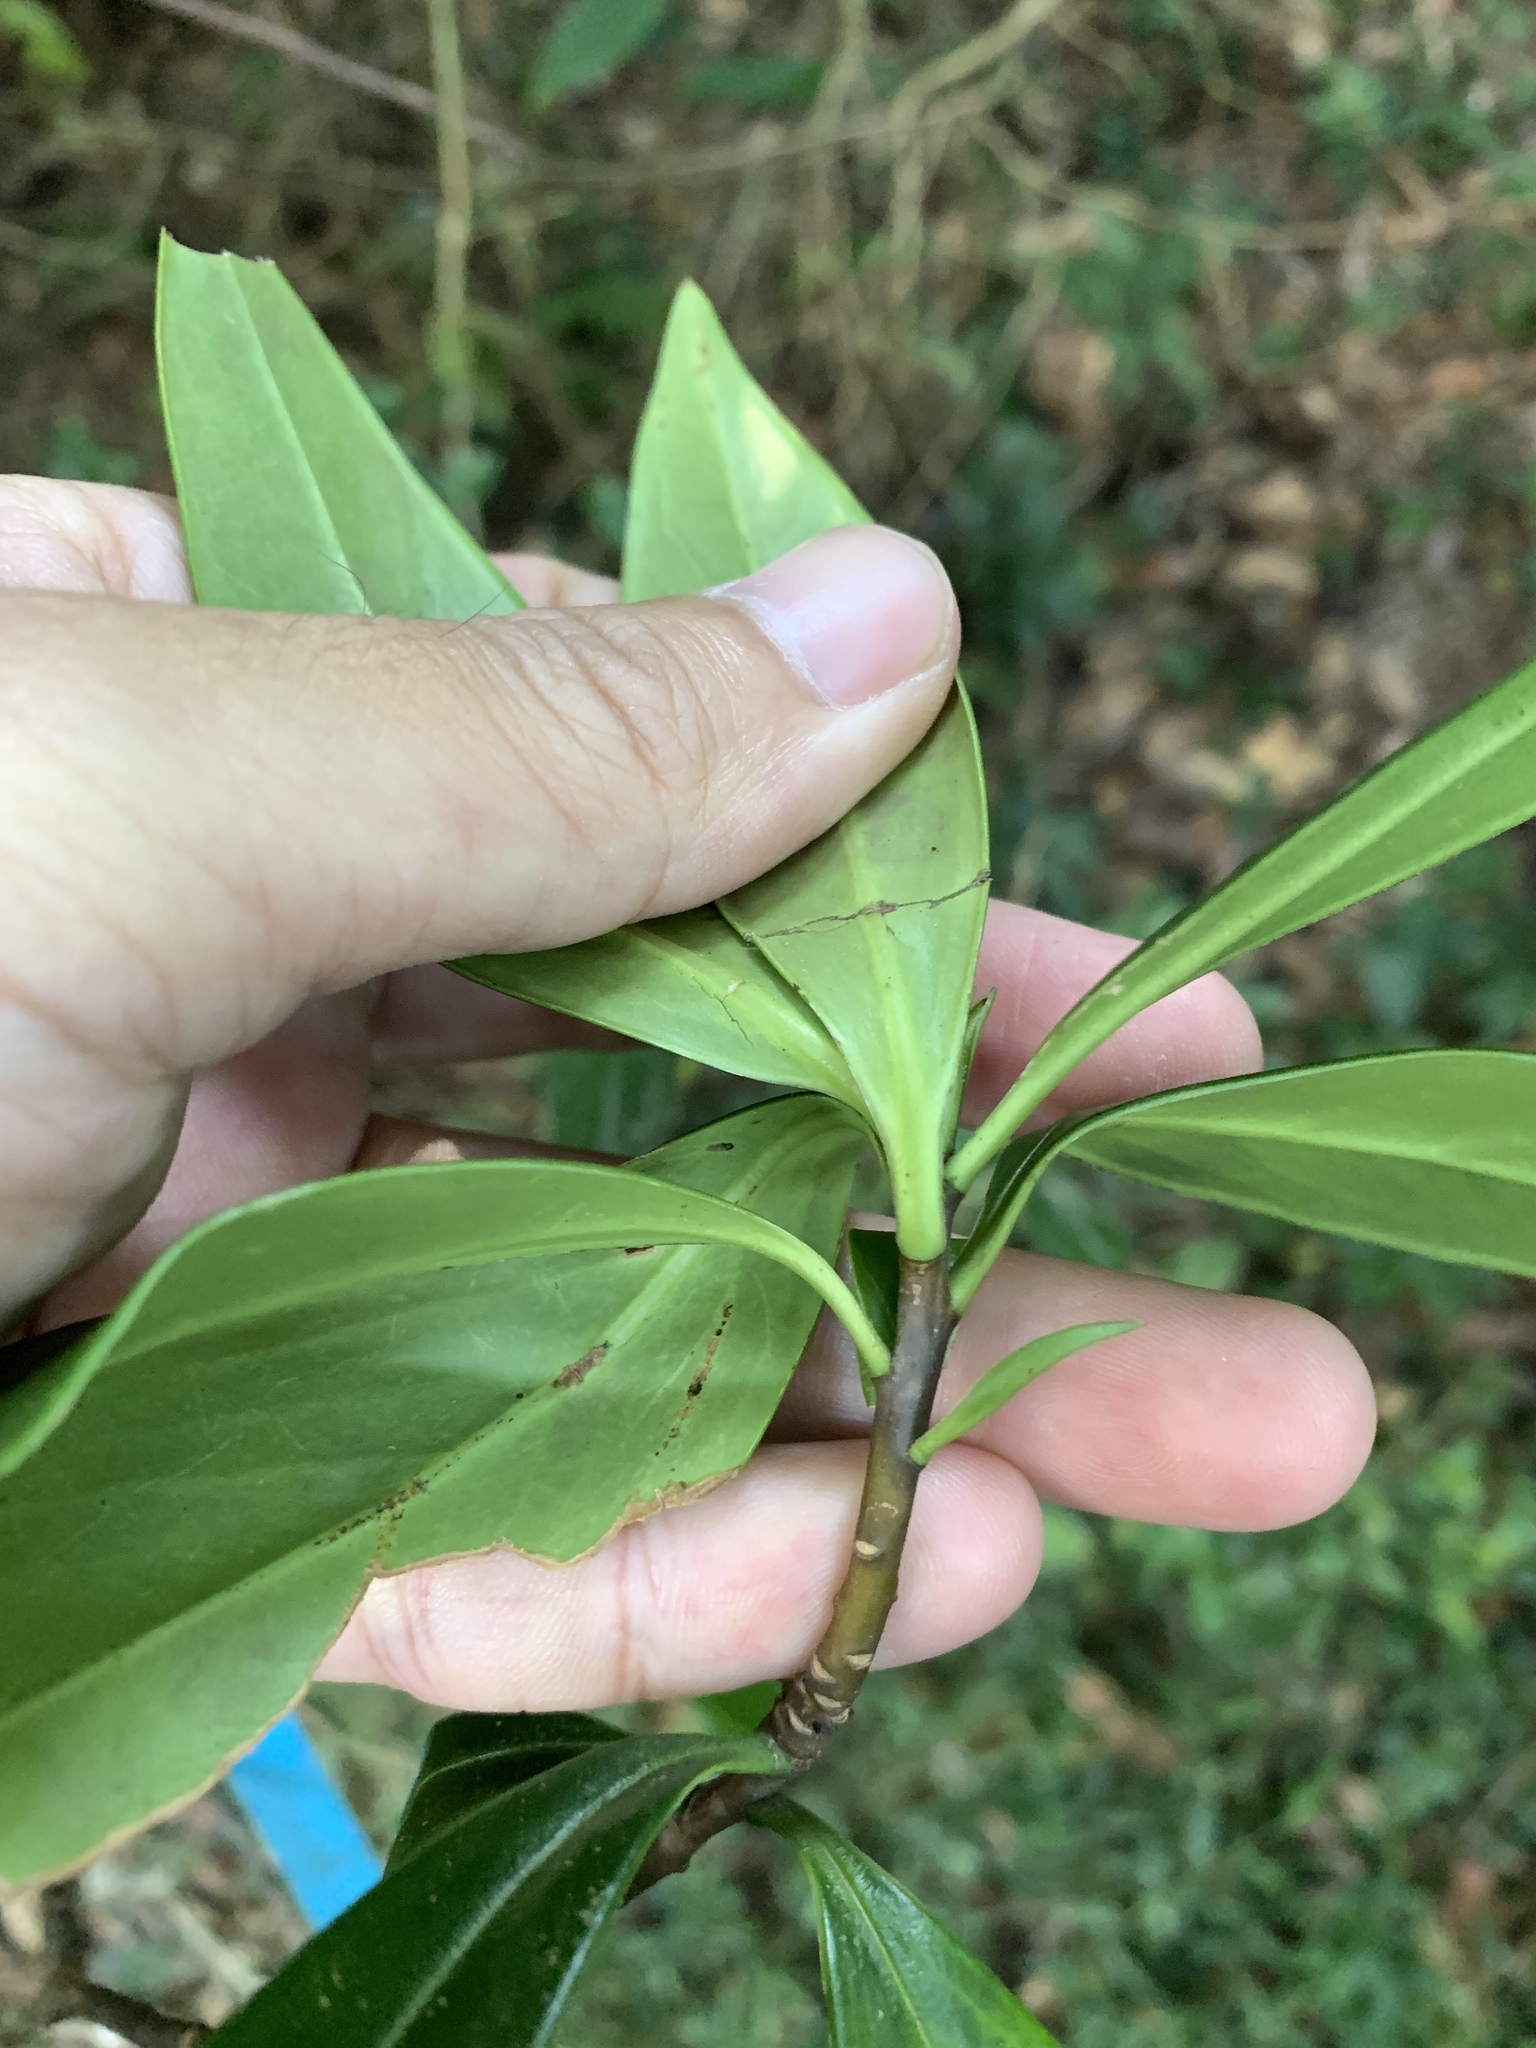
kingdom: Plantae
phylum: Tracheophyta
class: Magnoliopsida
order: Malvales
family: Thymelaeaceae
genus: Daphne
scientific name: Daphne kiusiana
